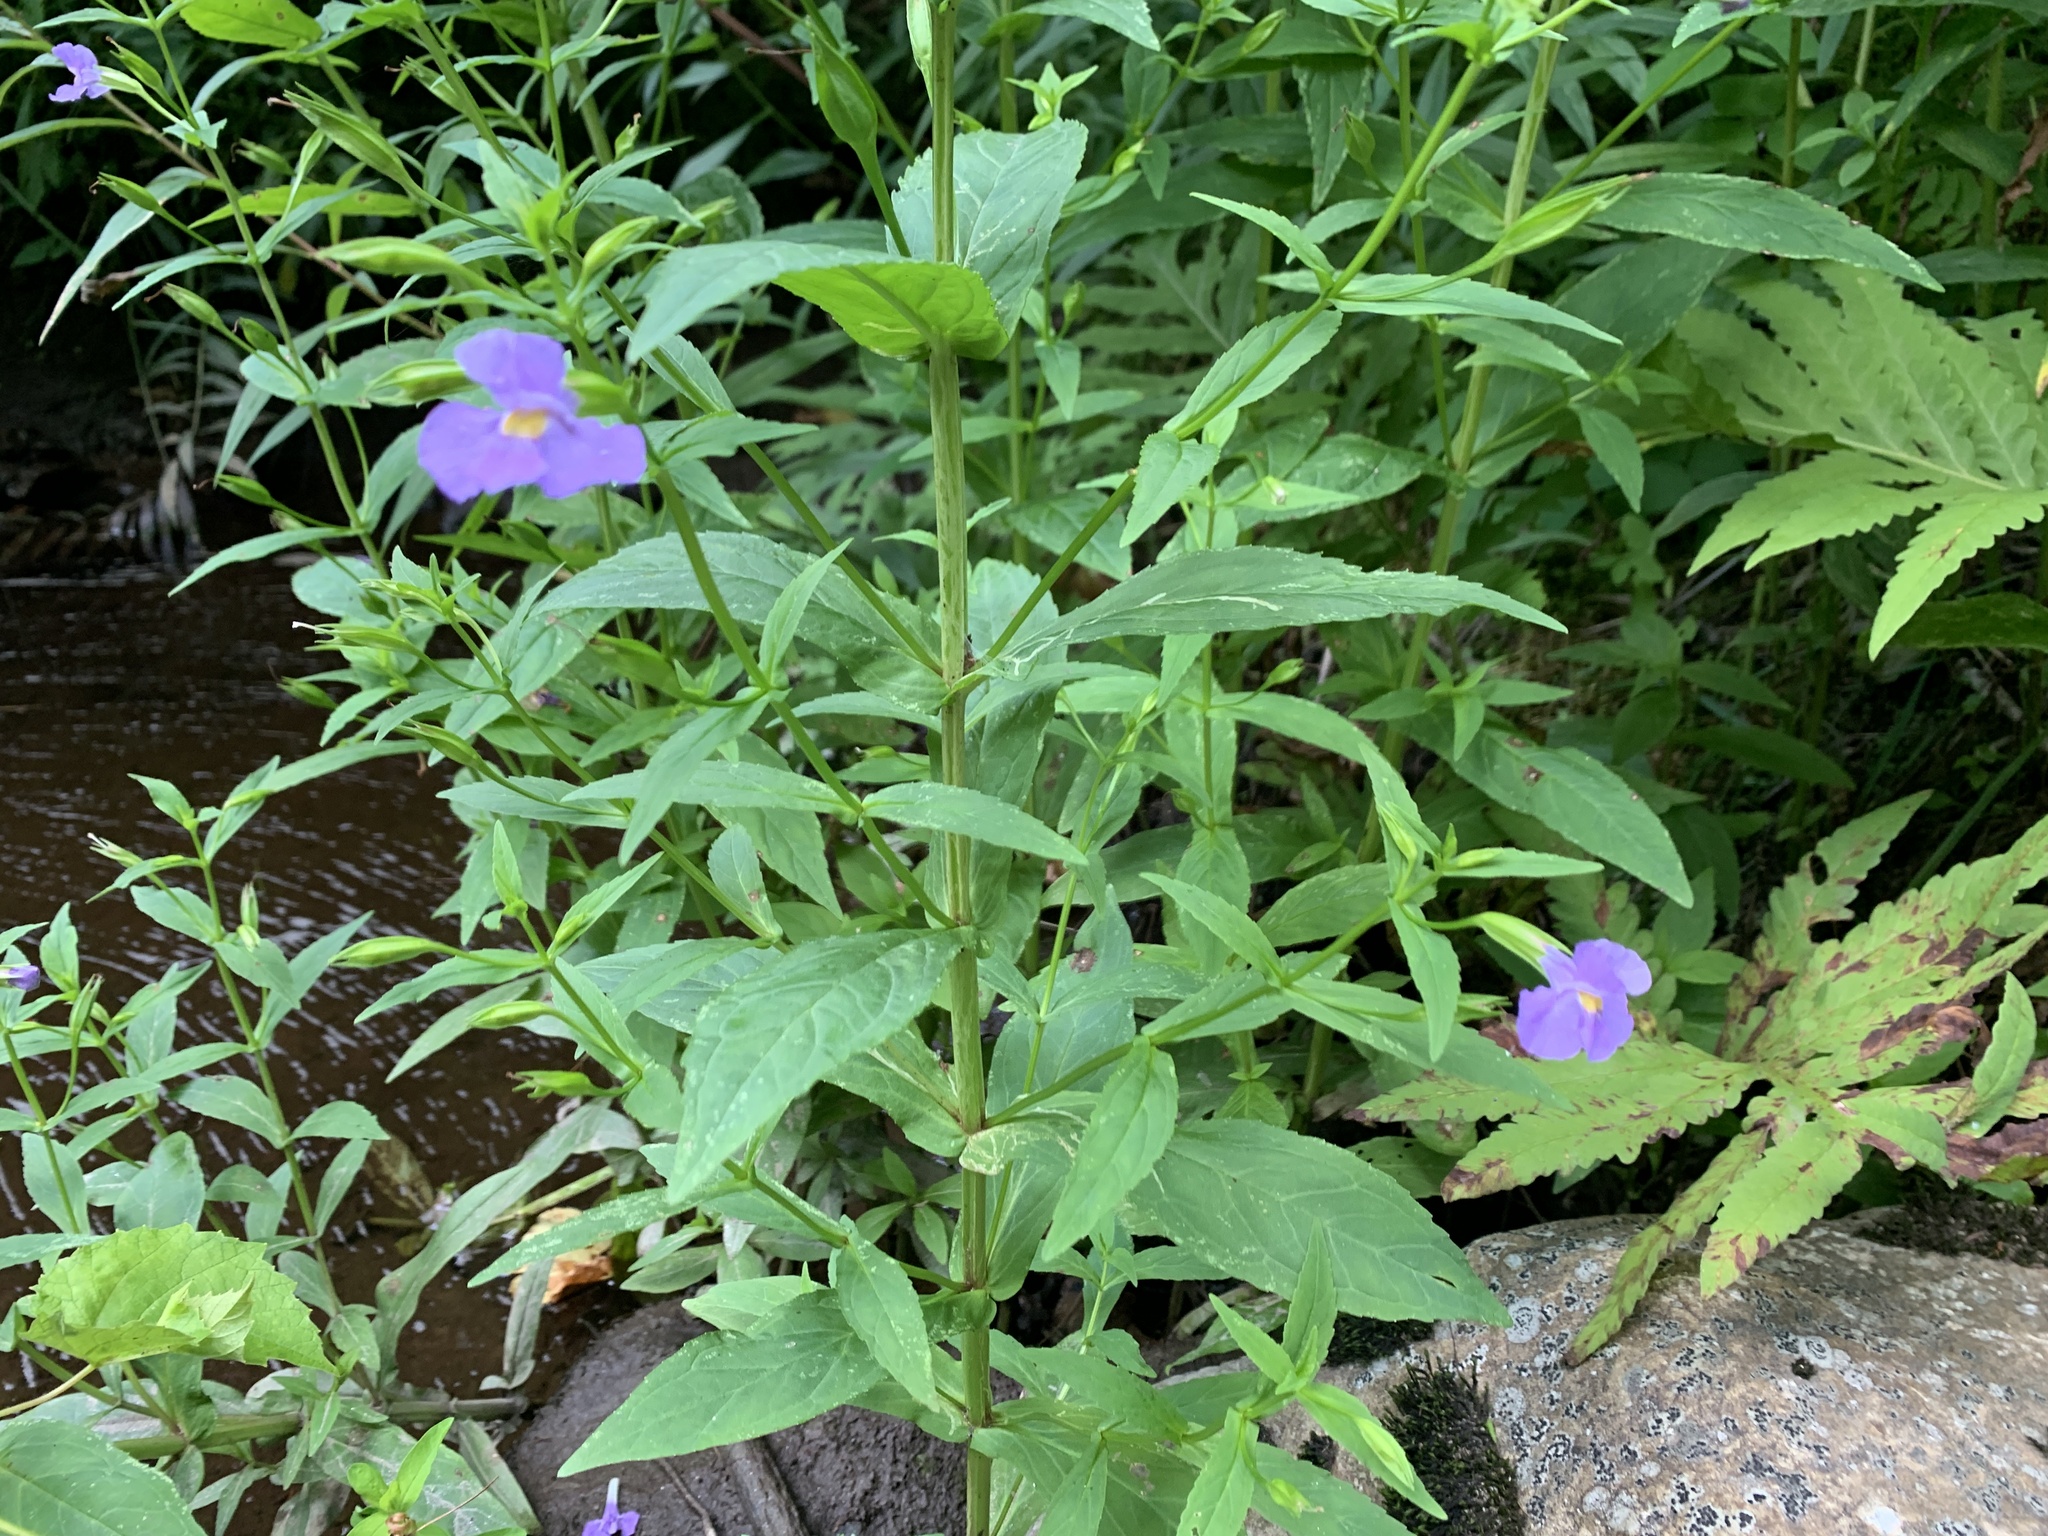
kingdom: Plantae
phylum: Tracheophyta
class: Magnoliopsida
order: Lamiales
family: Phrymaceae
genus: Mimulus
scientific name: Mimulus ringens
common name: Allegheny monkeyflower
